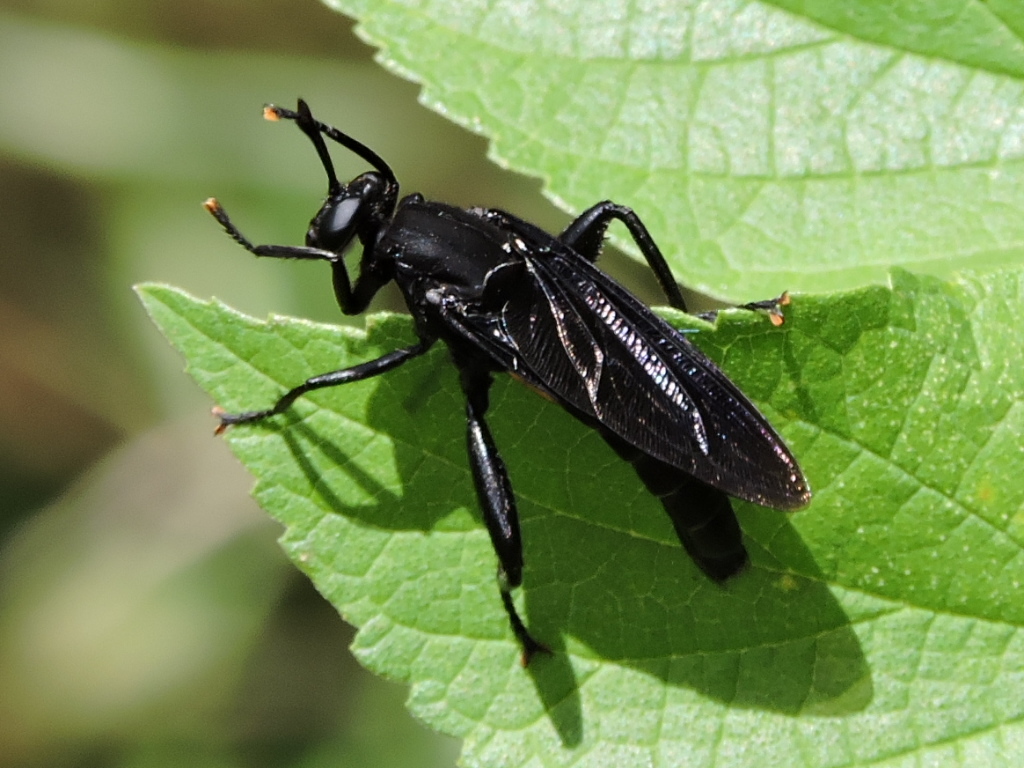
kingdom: Animalia
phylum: Arthropoda
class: Insecta
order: Diptera
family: Mydidae
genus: Mydas
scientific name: Mydas clavatus
